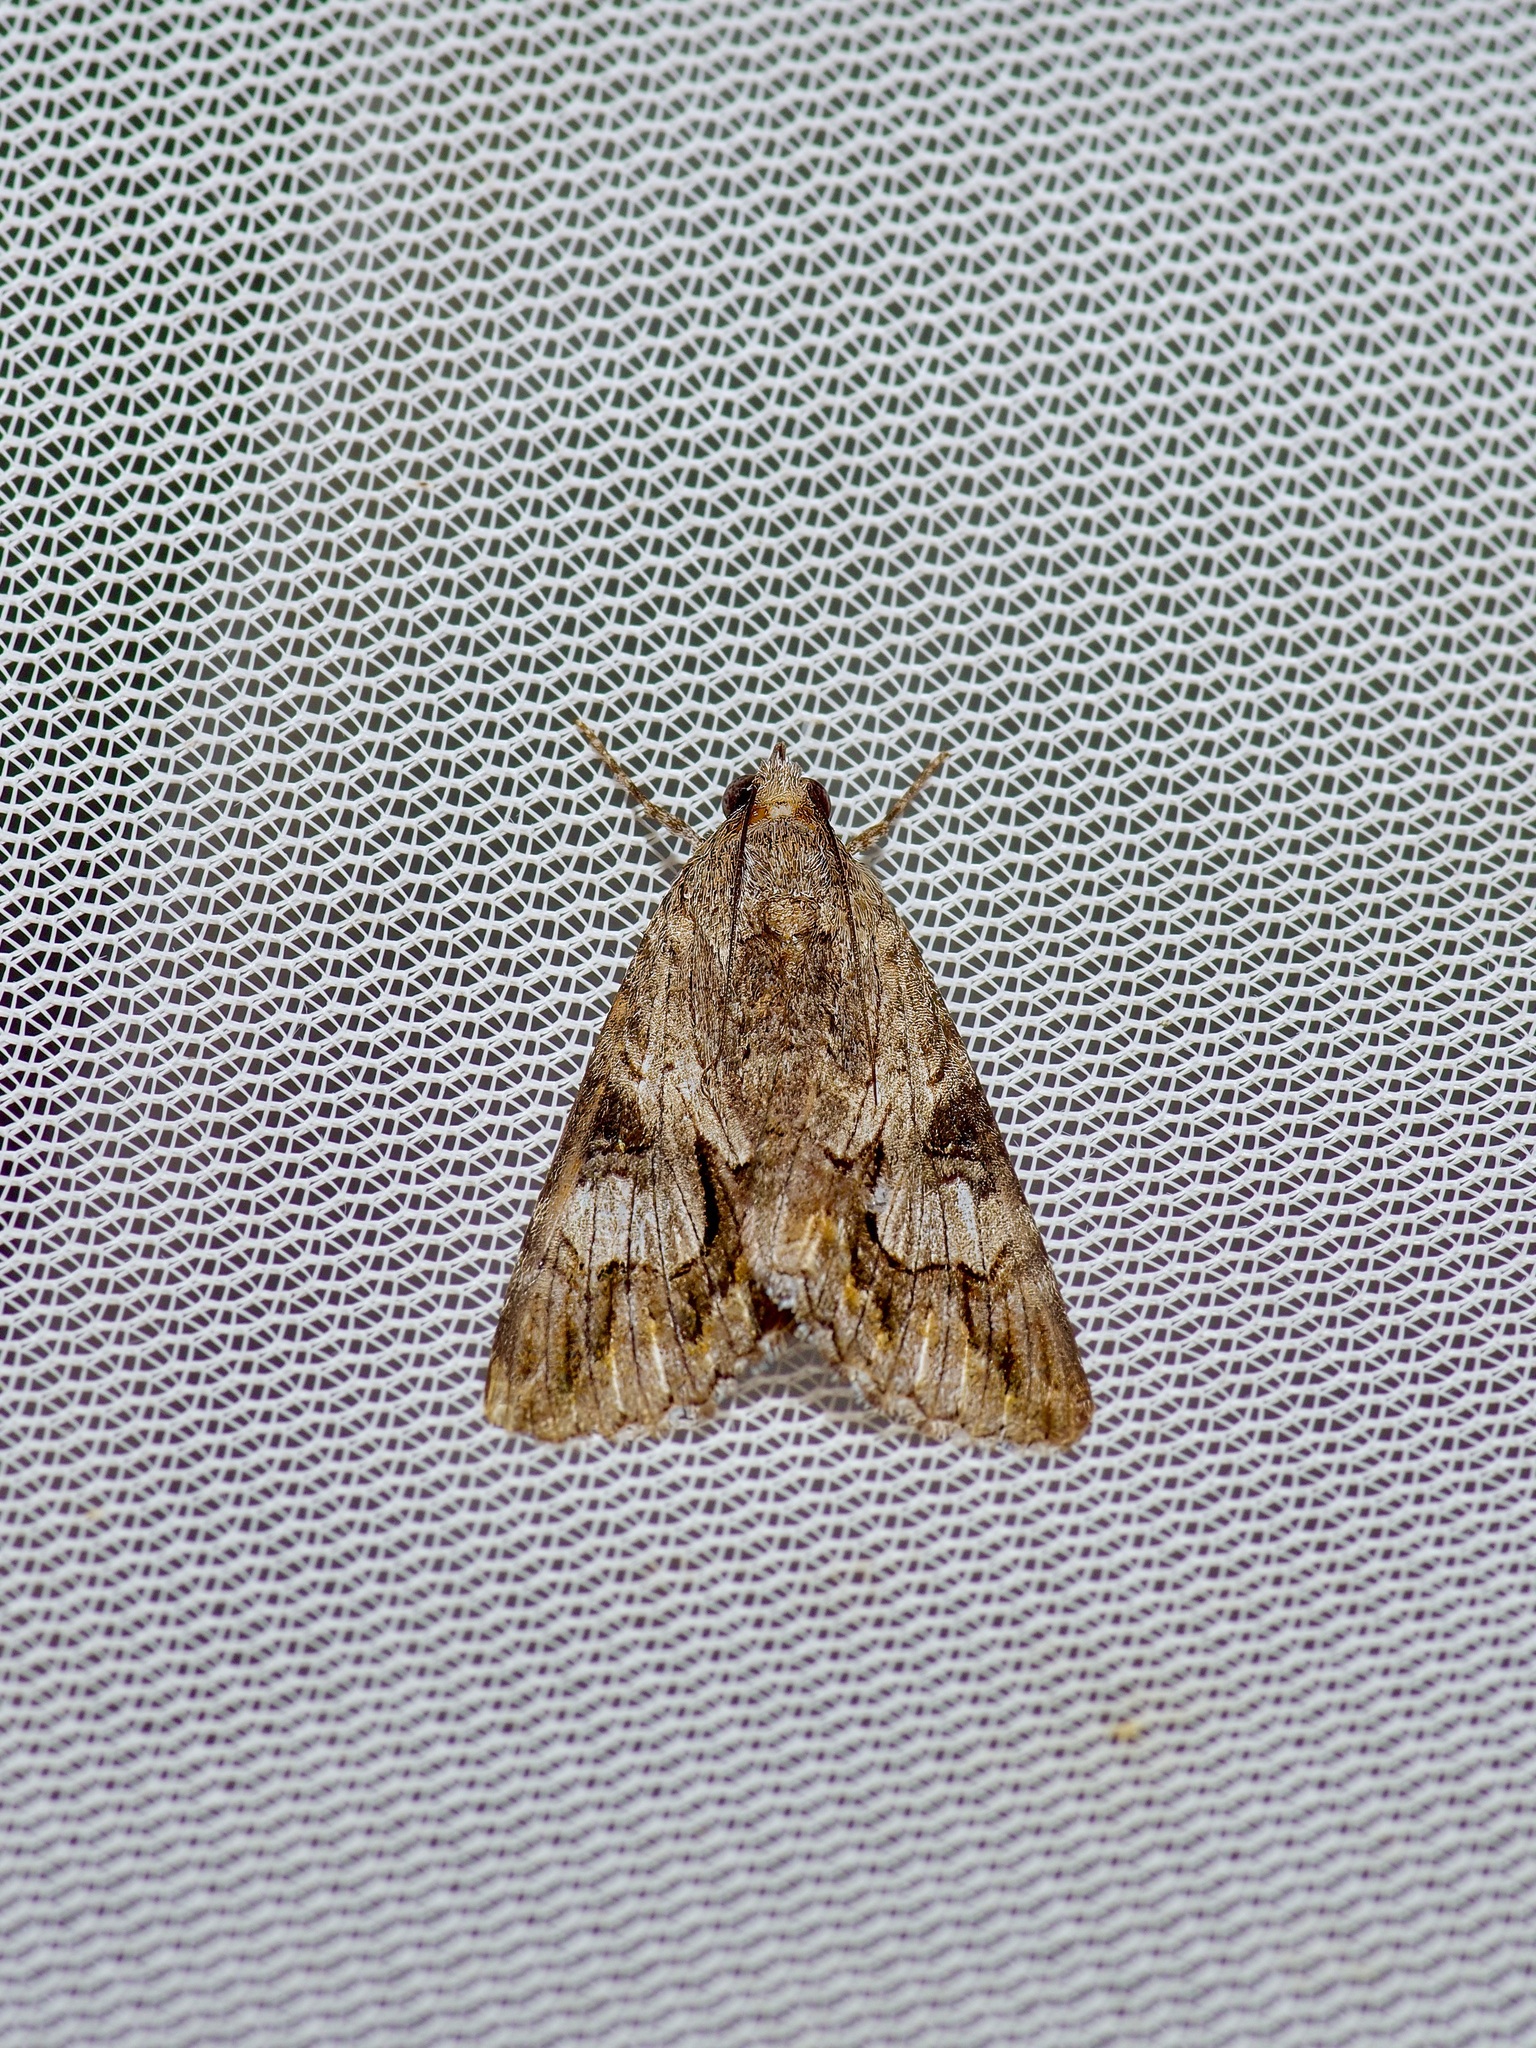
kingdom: Animalia
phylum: Arthropoda
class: Insecta
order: Lepidoptera
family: Erebidae
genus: Melipotis
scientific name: Melipotis jucunda
